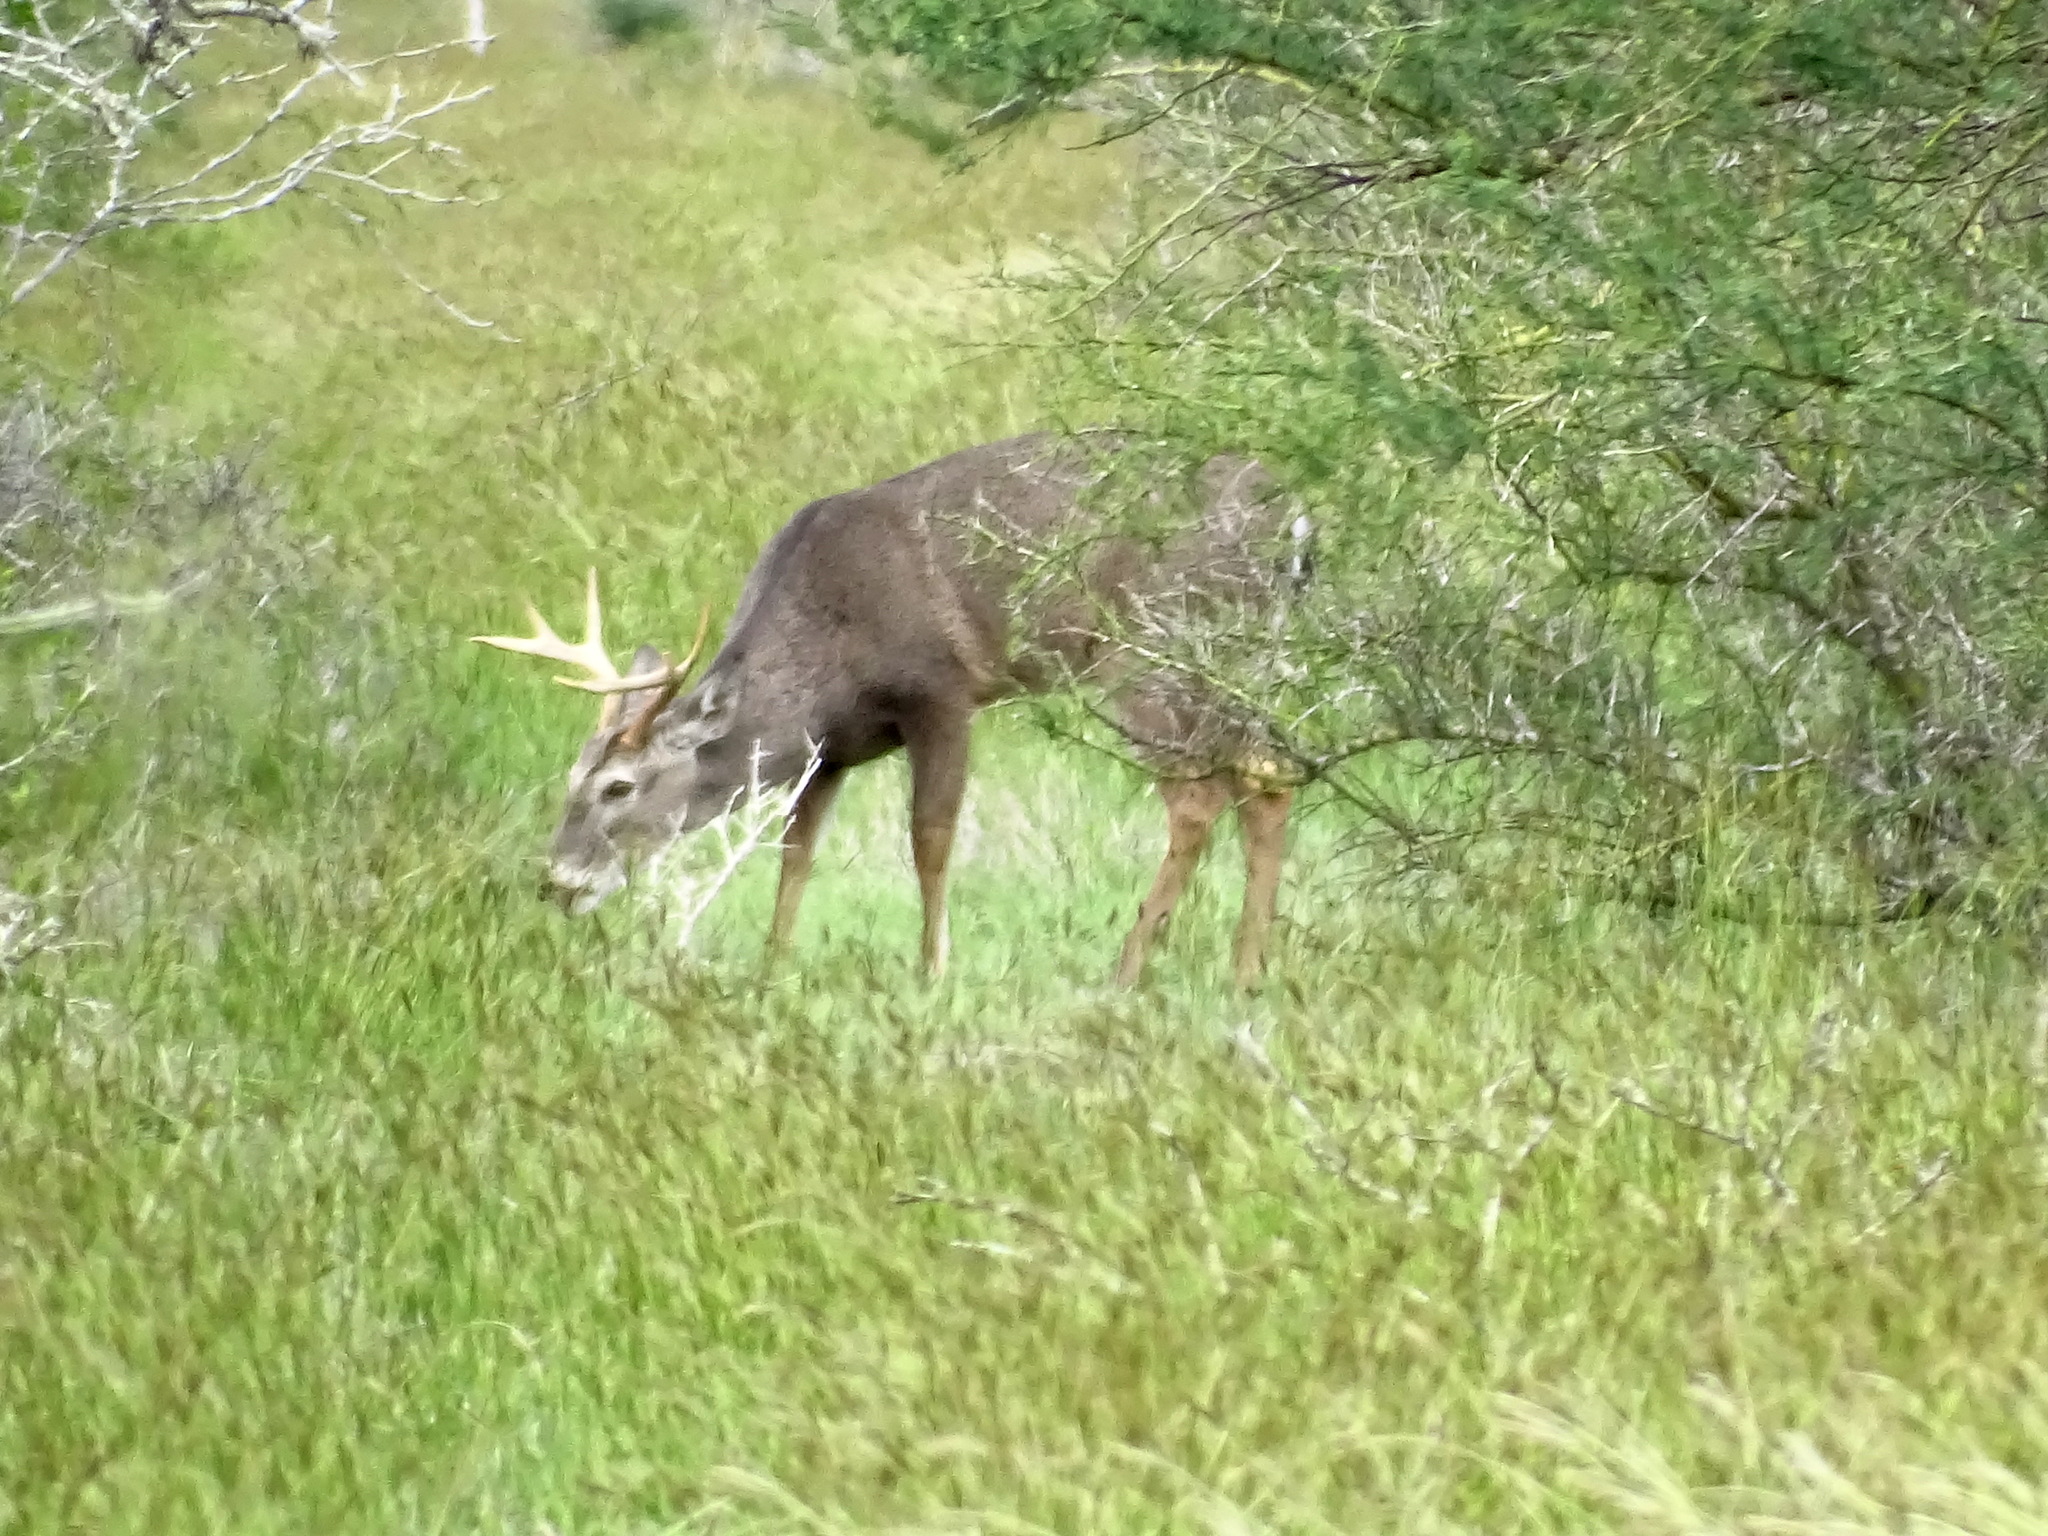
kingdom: Animalia
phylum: Chordata
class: Mammalia
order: Artiodactyla
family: Cervidae
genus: Odocoileus
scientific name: Odocoileus virginianus
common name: White-tailed deer
